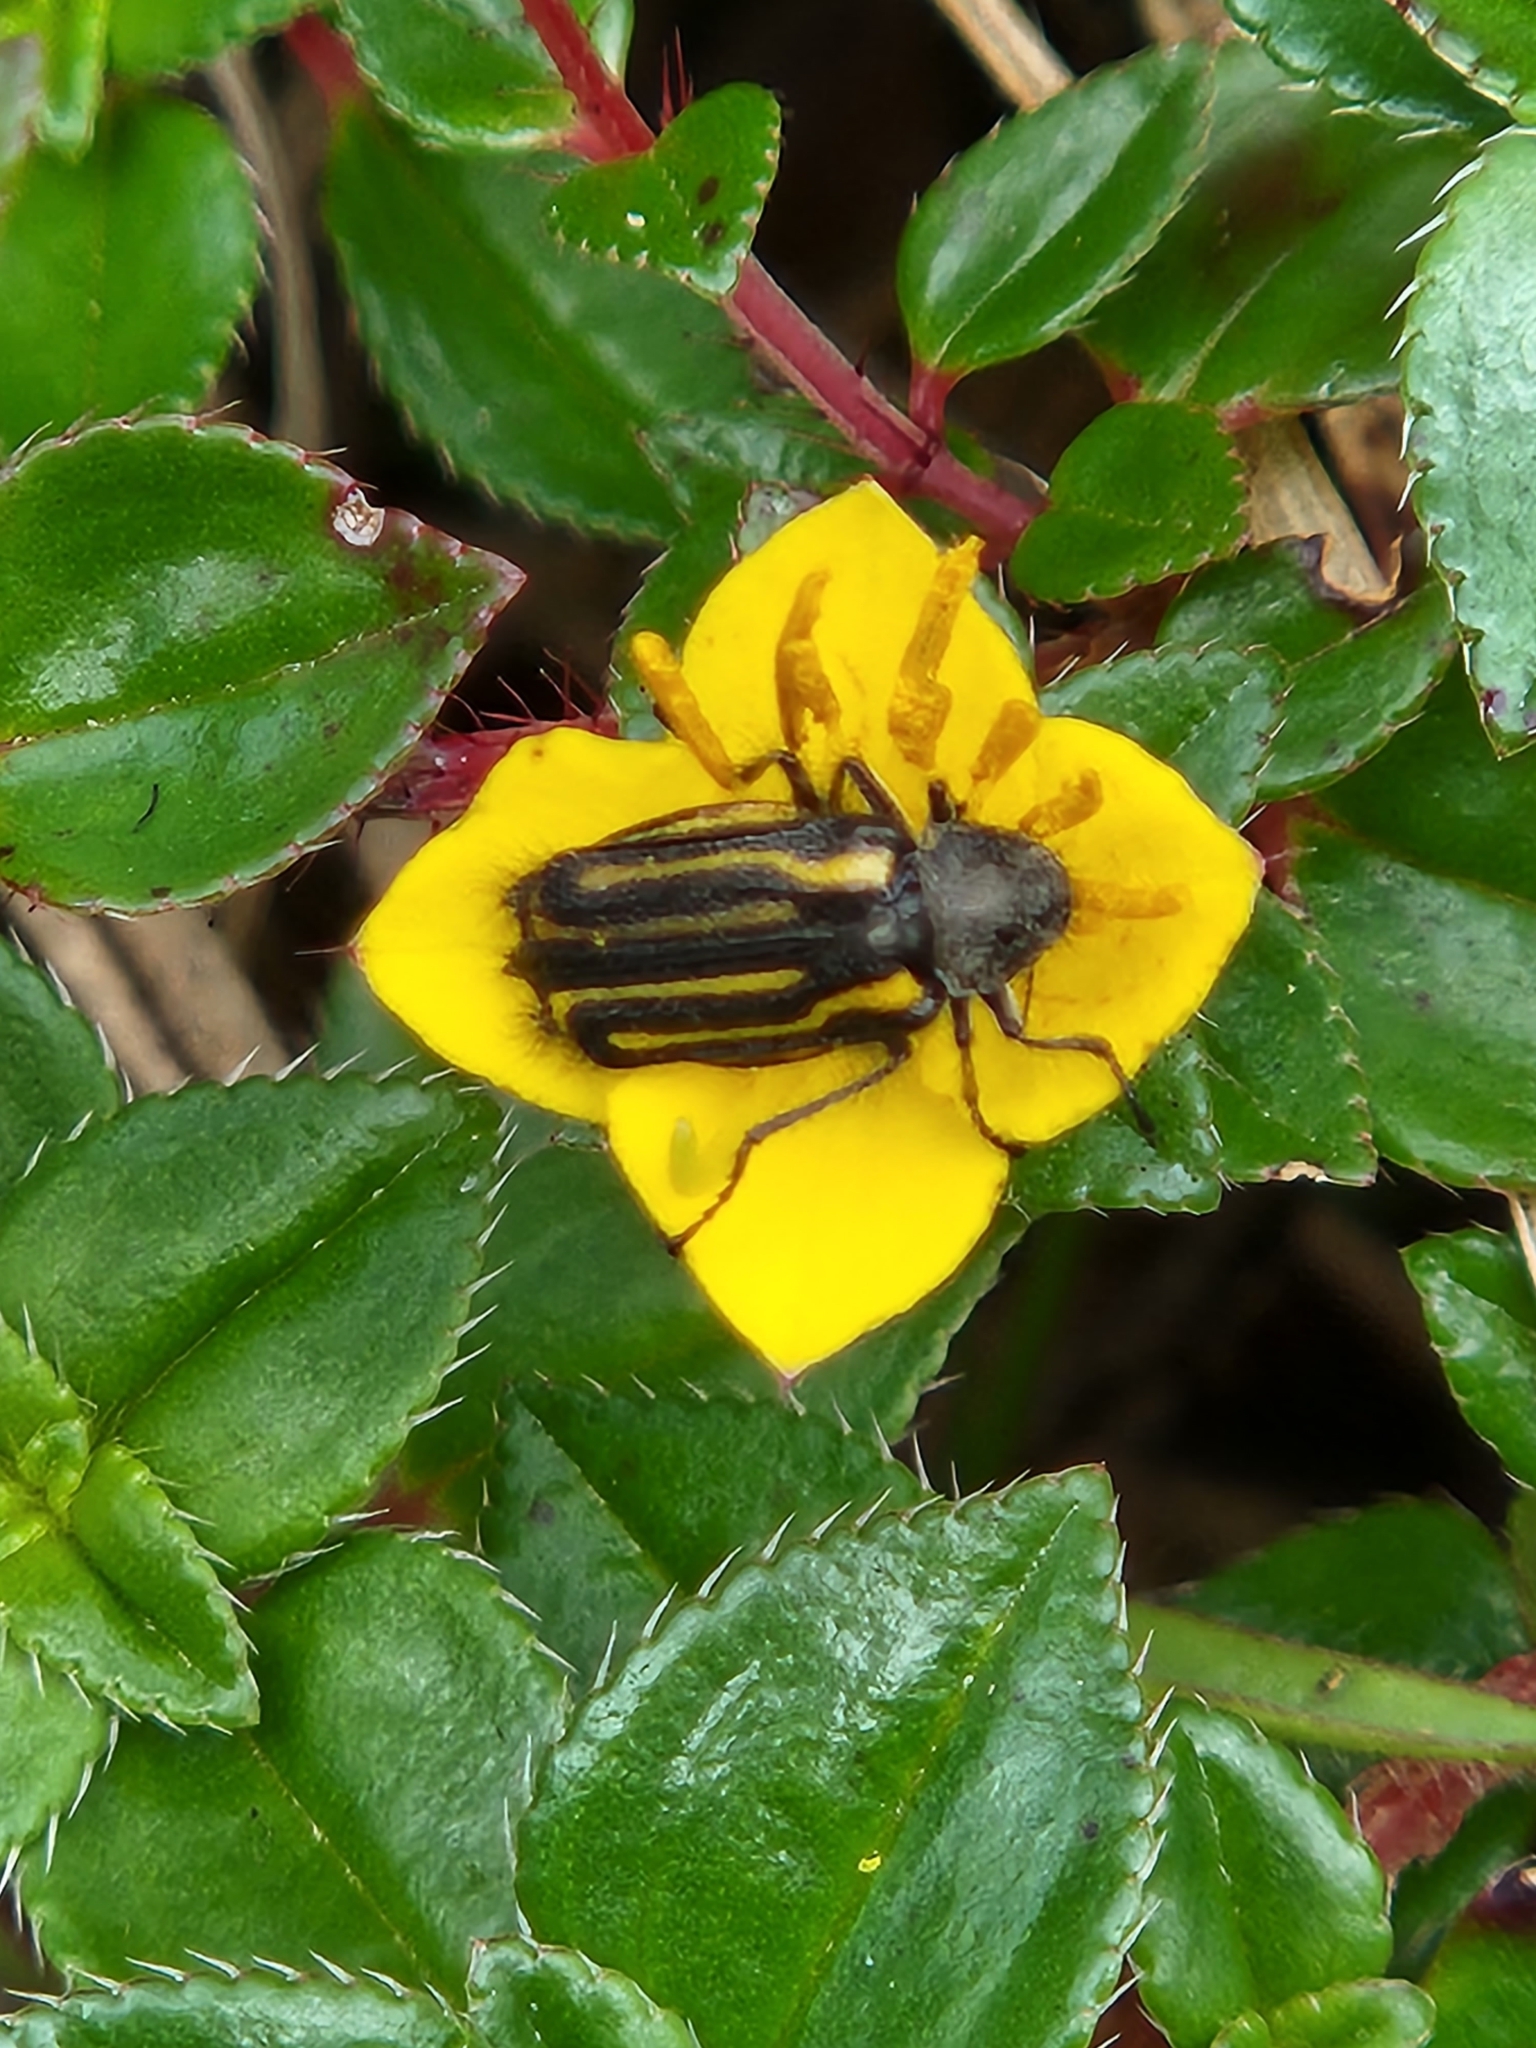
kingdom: Animalia
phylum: Arthropoda
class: Insecta
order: Coleoptera
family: Melyridae
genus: Astylus
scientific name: Astylus
